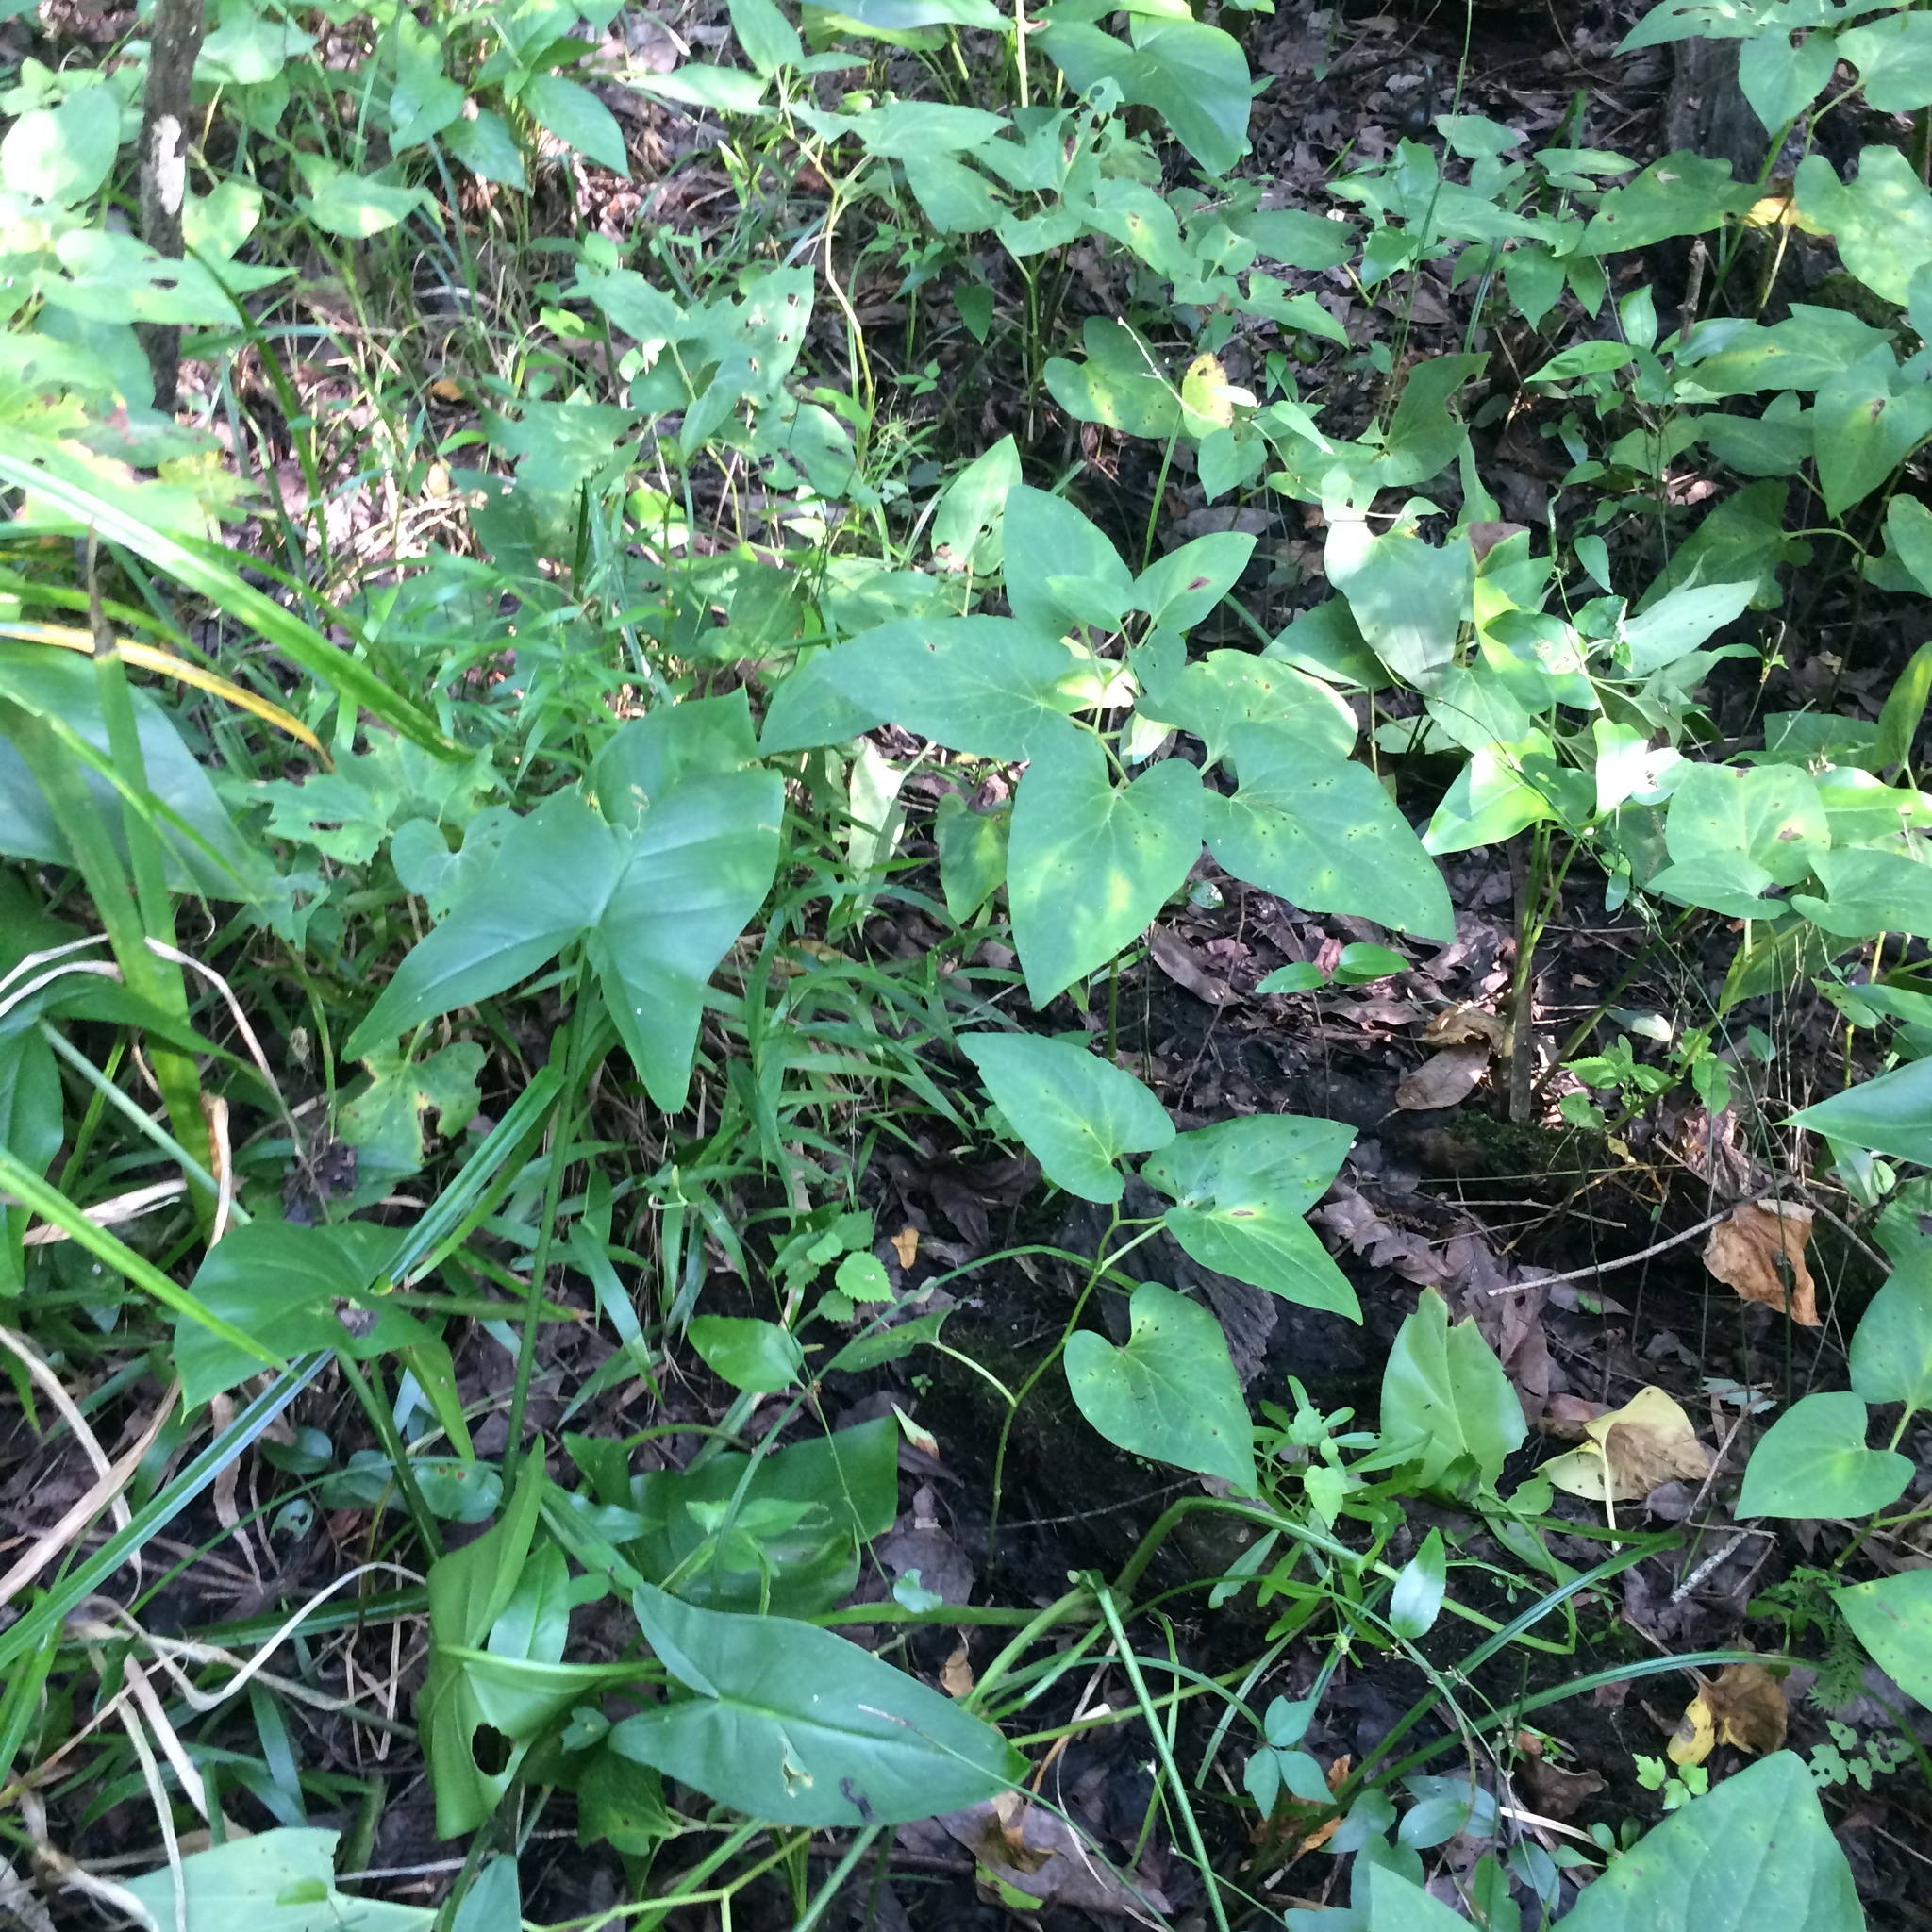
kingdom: Plantae
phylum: Tracheophyta
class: Liliopsida
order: Alismatales
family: Araceae
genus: Peltandra
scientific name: Peltandra virginica
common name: Arrow arum
